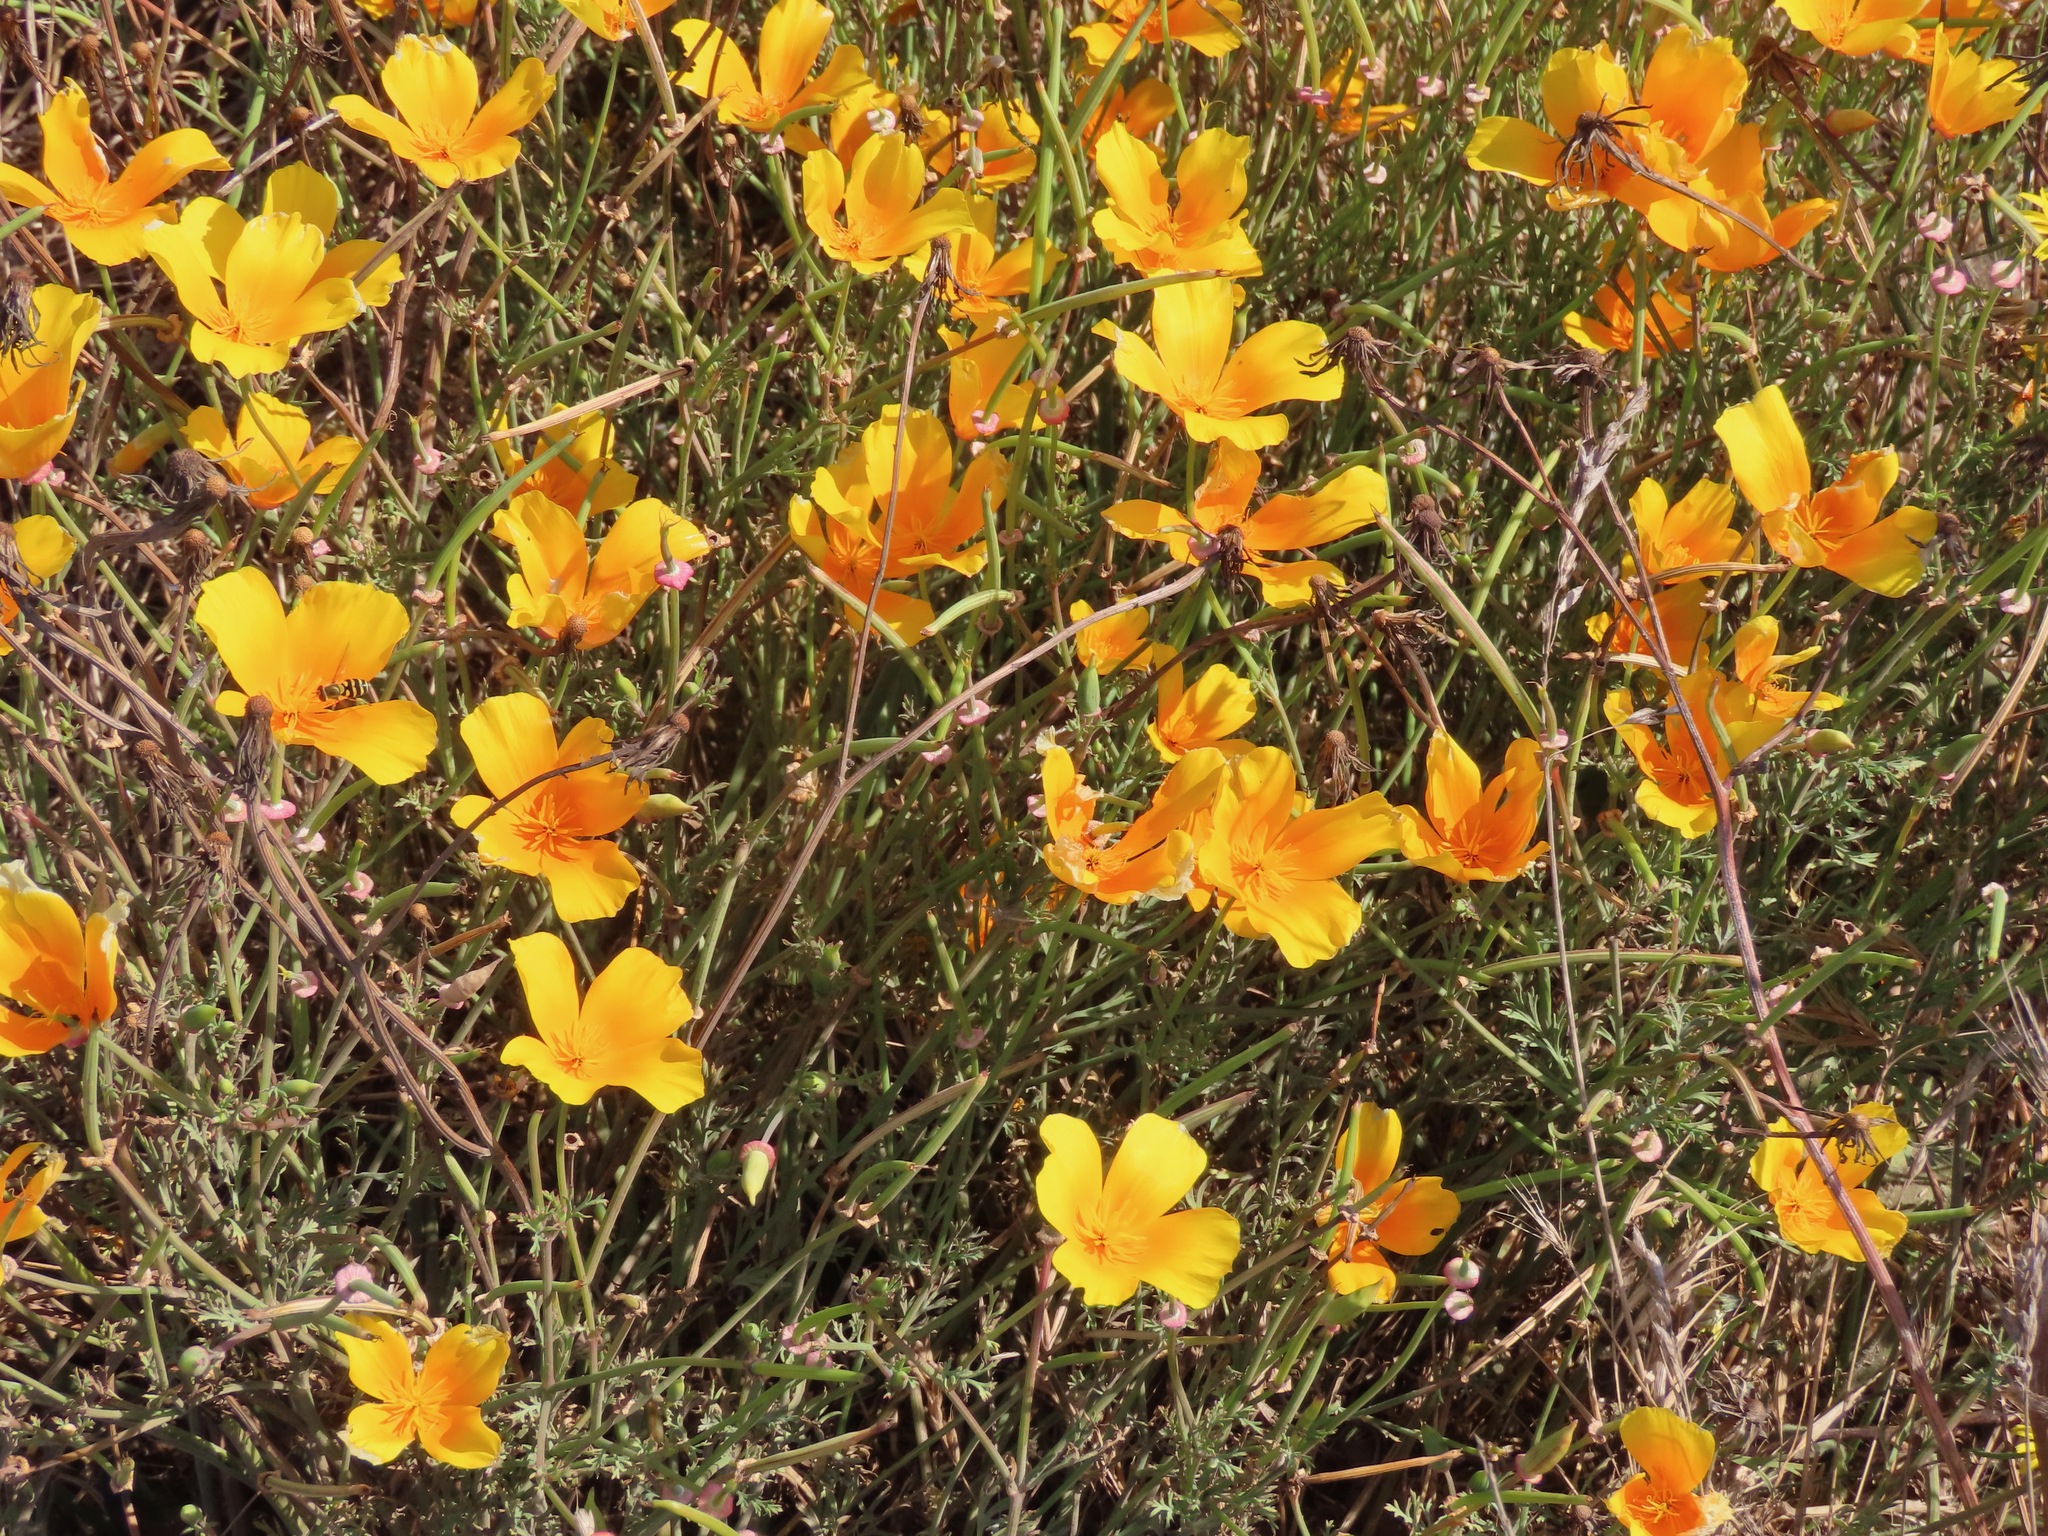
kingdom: Plantae
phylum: Tracheophyta
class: Magnoliopsida
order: Ranunculales
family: Papaveraceae
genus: Eschscholzia
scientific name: Eschscholzia californica
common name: California poppy
